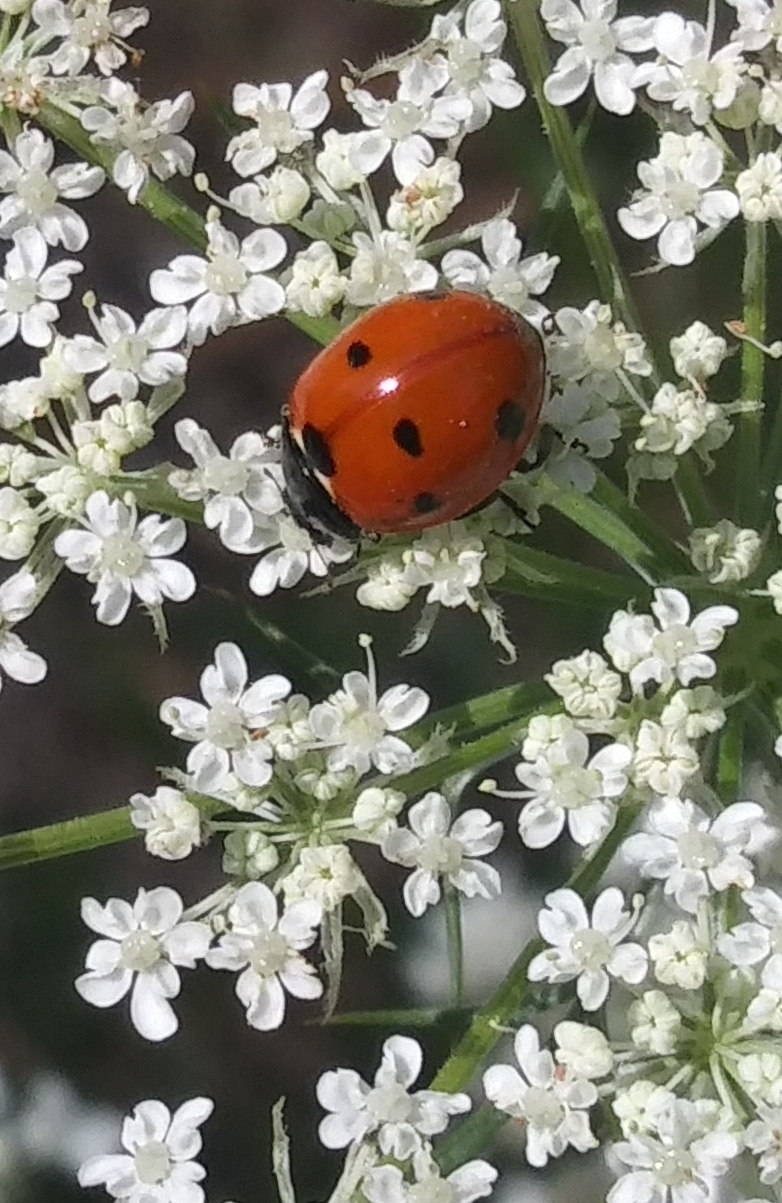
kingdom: Animalia
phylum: Arthropoda
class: Insecta
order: Coleoptera
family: Coccinellidae
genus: Coccinella
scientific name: Coccinella septempunctata
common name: Sevenspotted lady beetle
